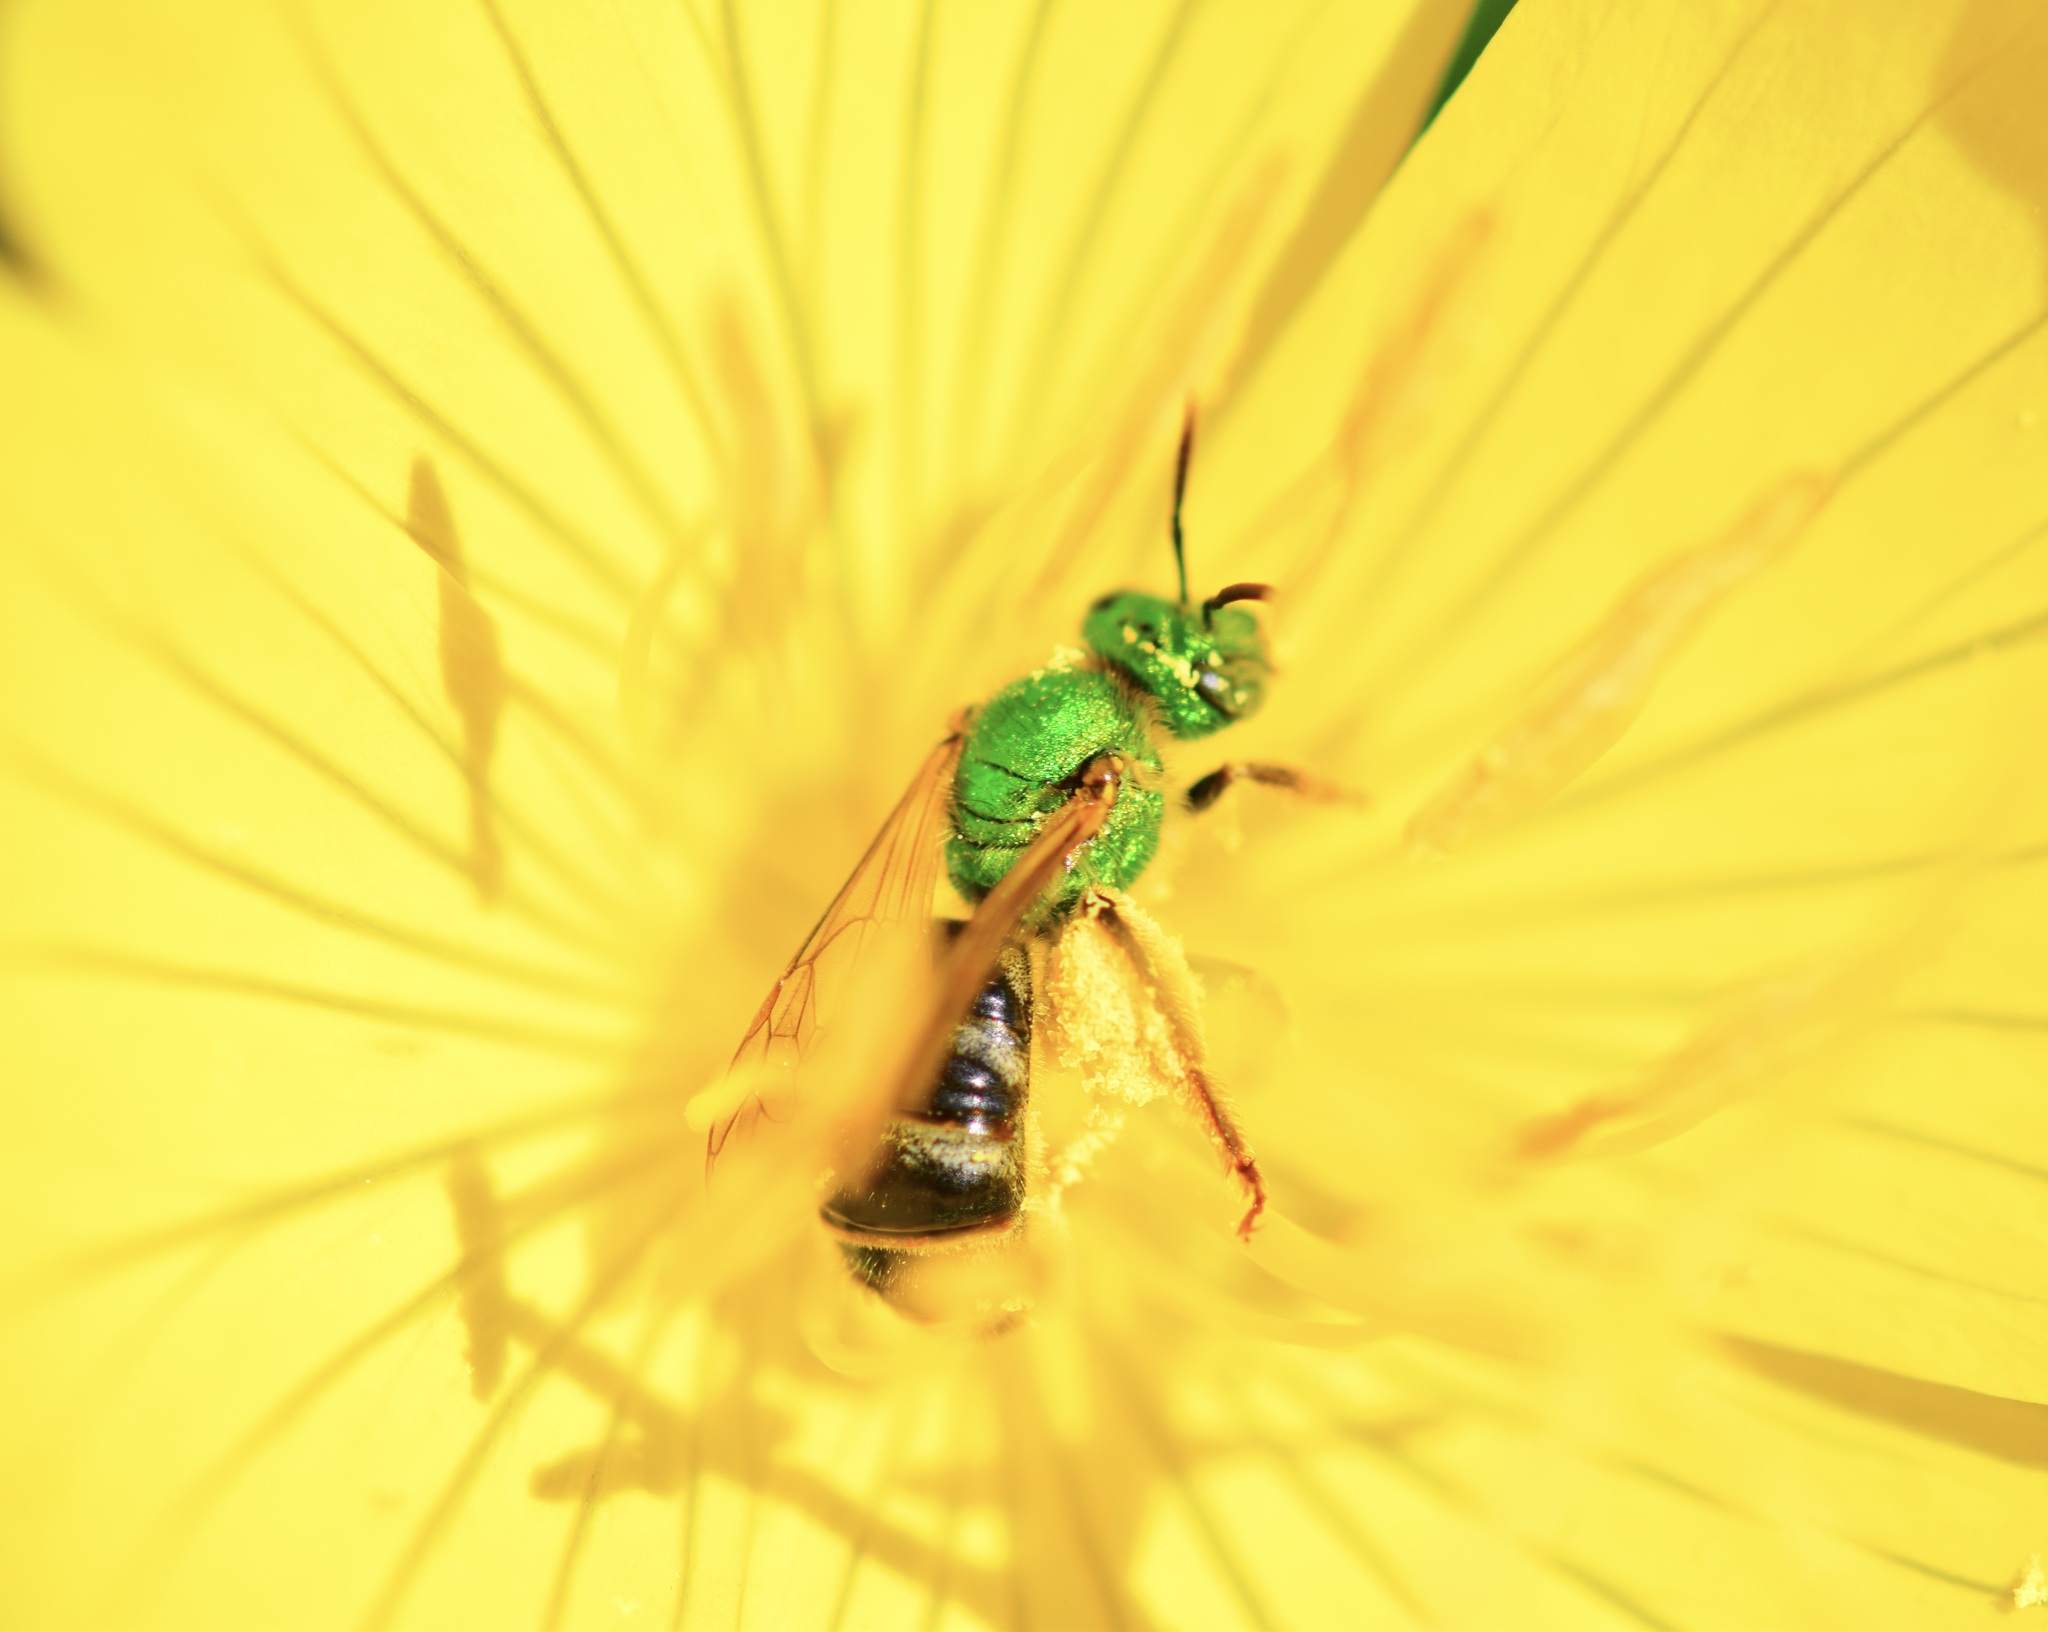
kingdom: Animalia
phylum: Arthropoda
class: Insecta
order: Hymenoptera
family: Halictidae
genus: Agapostemon
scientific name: Agapostemon virescens
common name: Bicolored striped sweat bee
